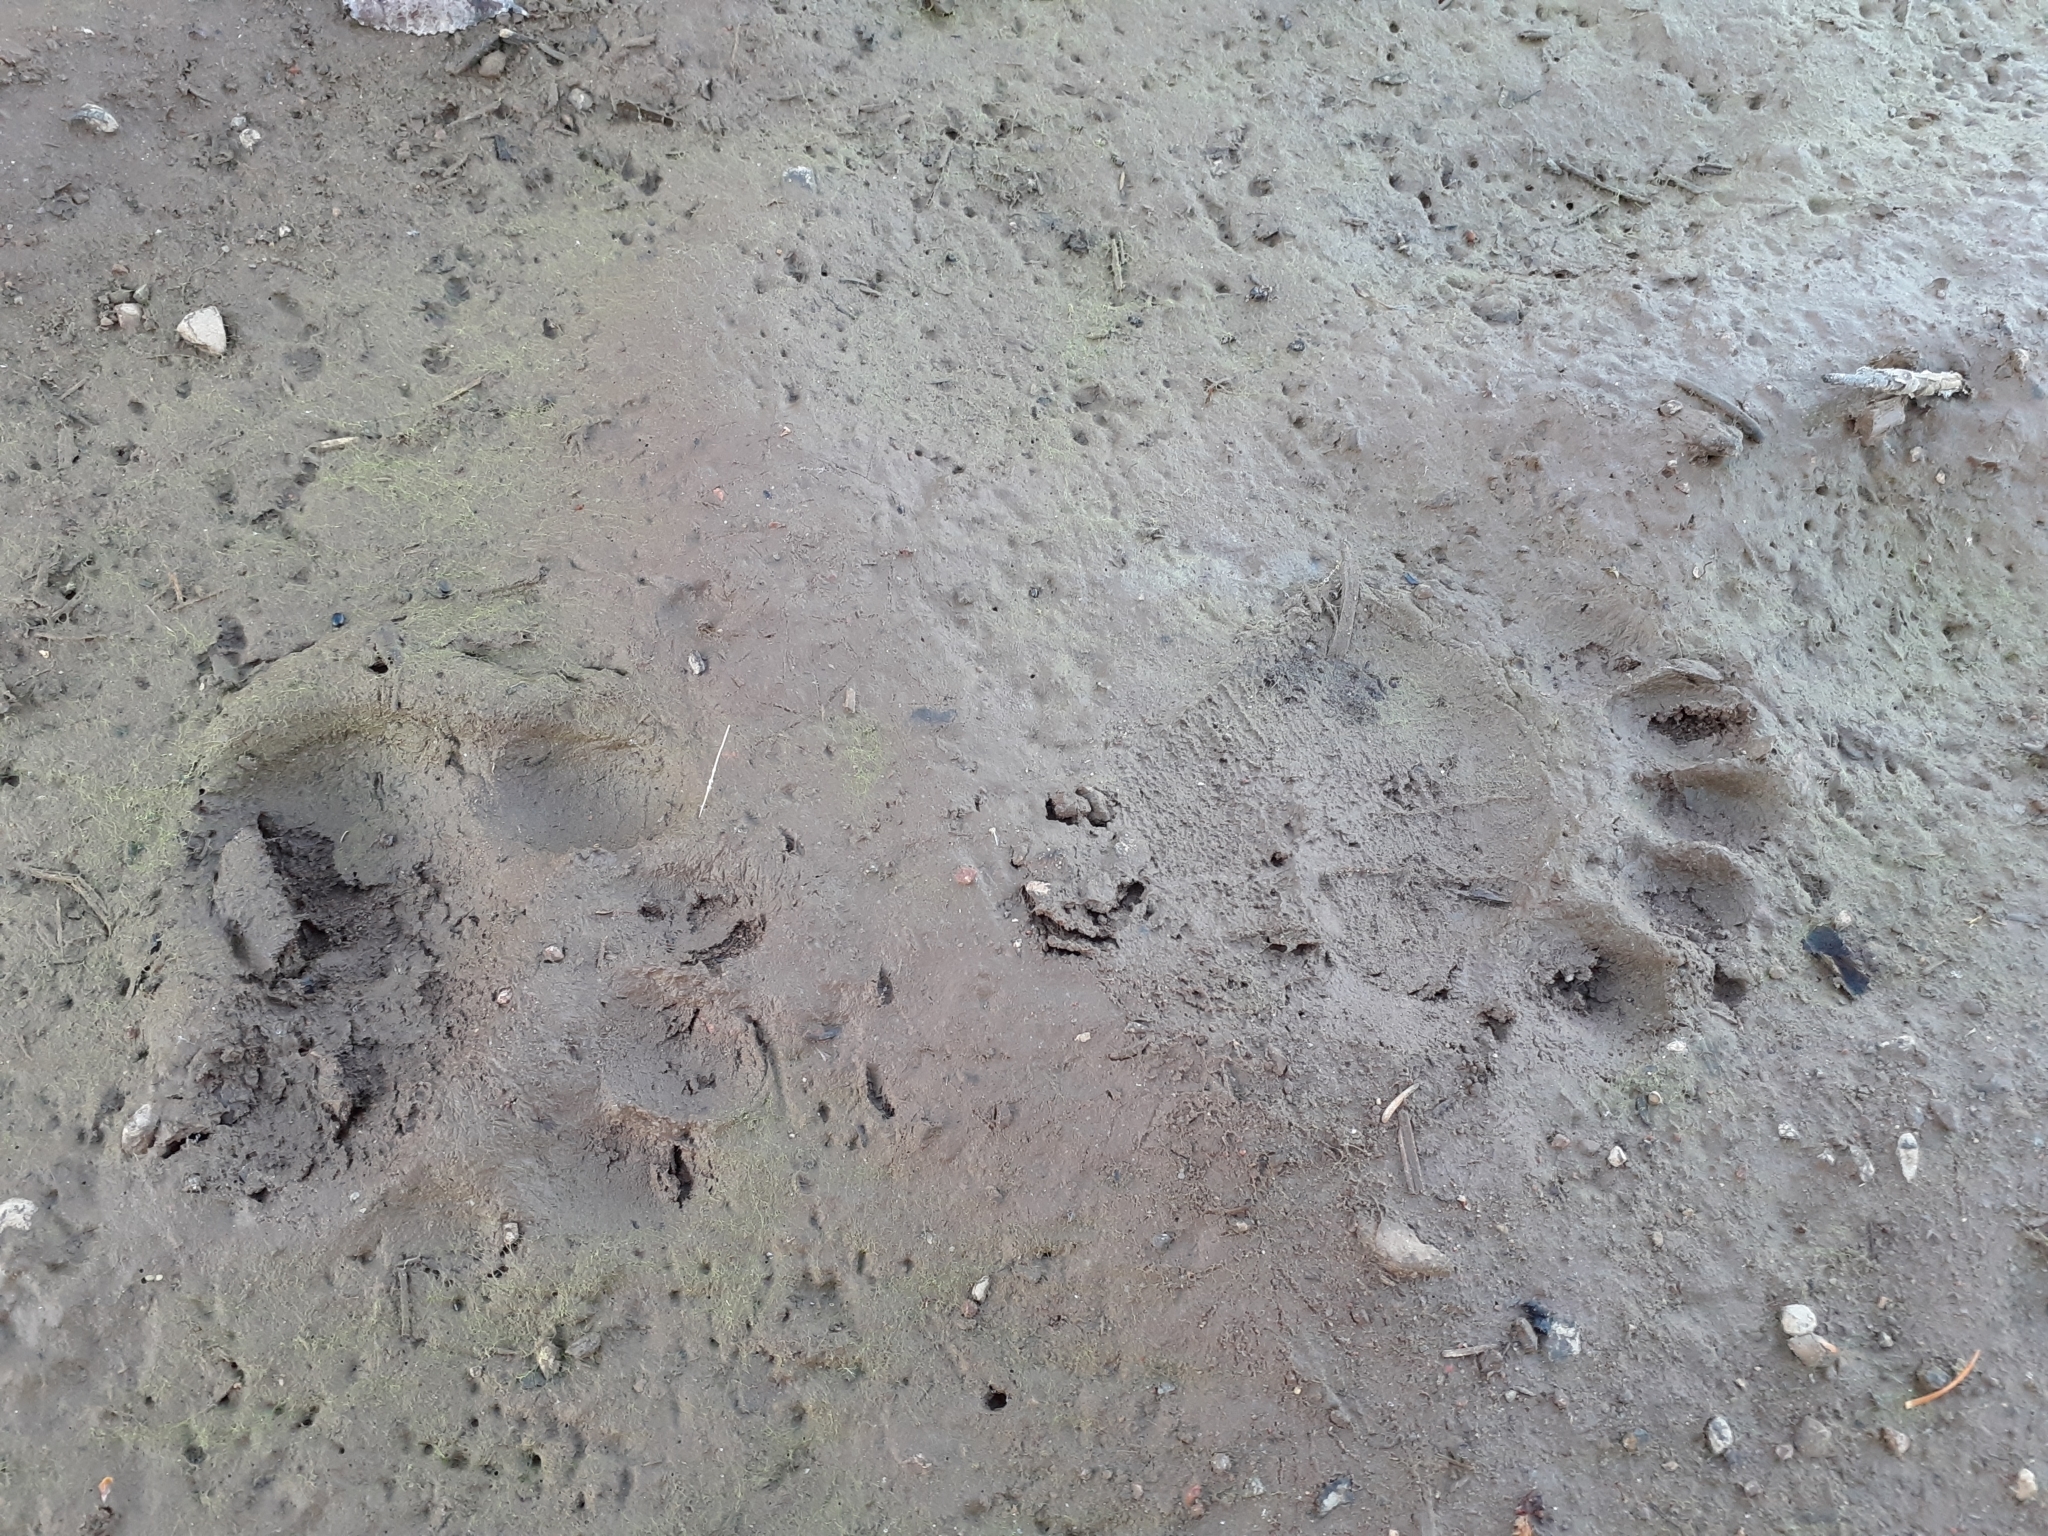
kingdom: Animalia
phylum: Chordata
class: Mammalia
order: Carnivora
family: Ursidae
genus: Ursus
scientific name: Ursus americanus
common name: American black bear
